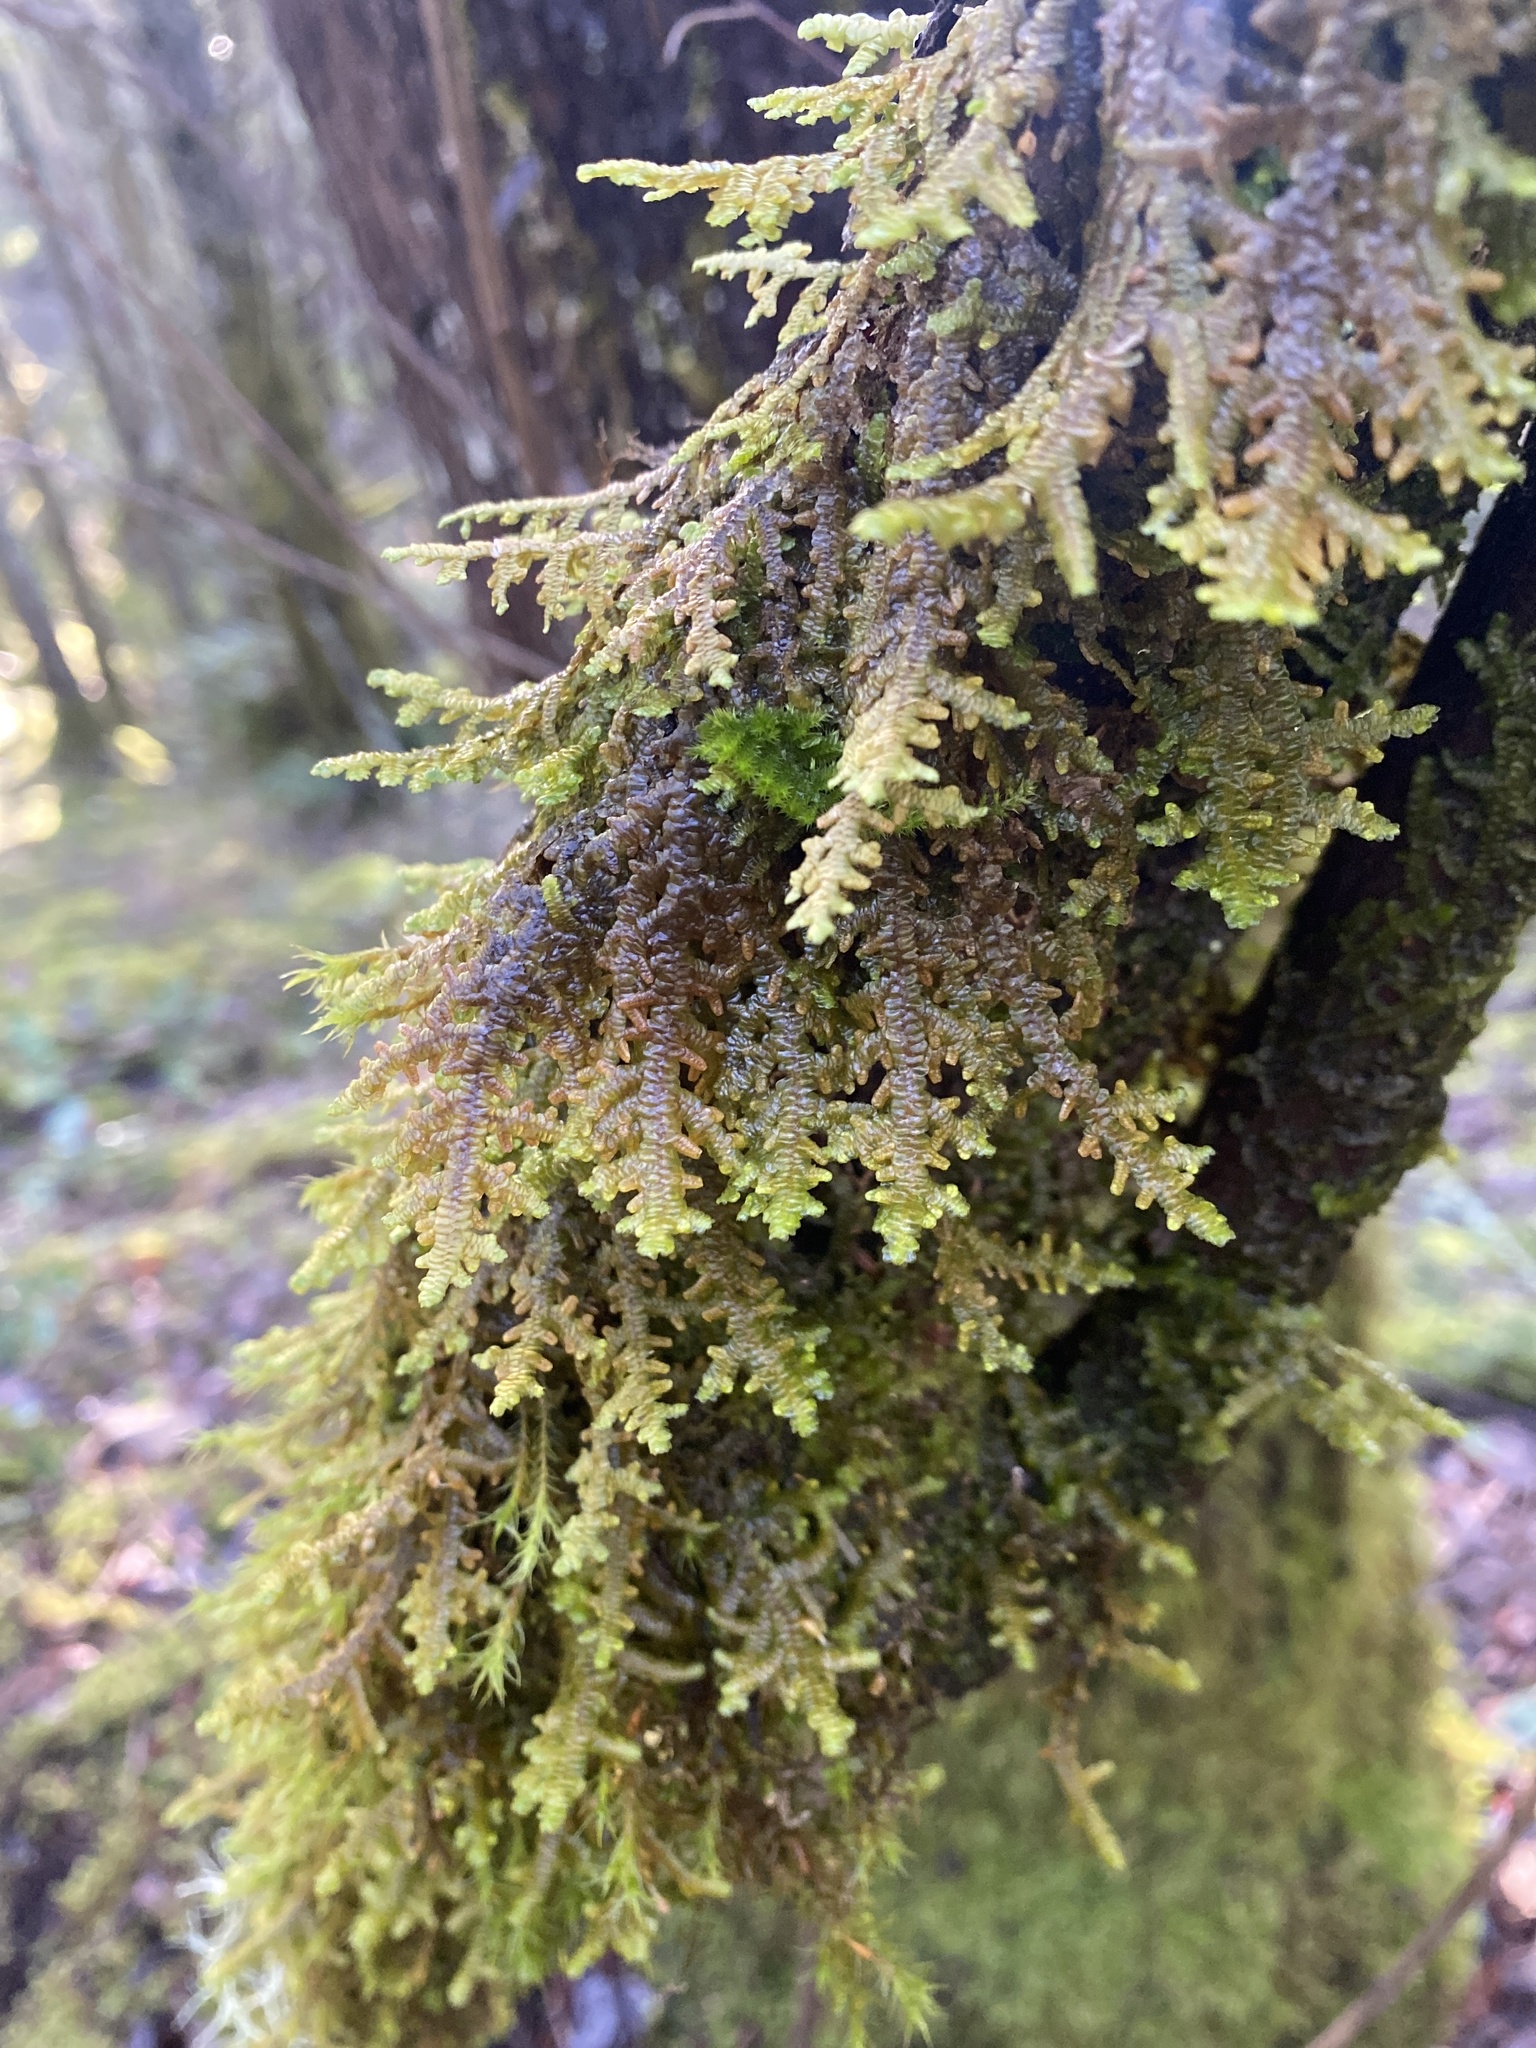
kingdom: Plantae
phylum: Marchantiophyta
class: Jungermanniopsida
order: Porellales
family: Porellaceae
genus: Porella
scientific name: Porella navicularis
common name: Tree ruffle liverwort
